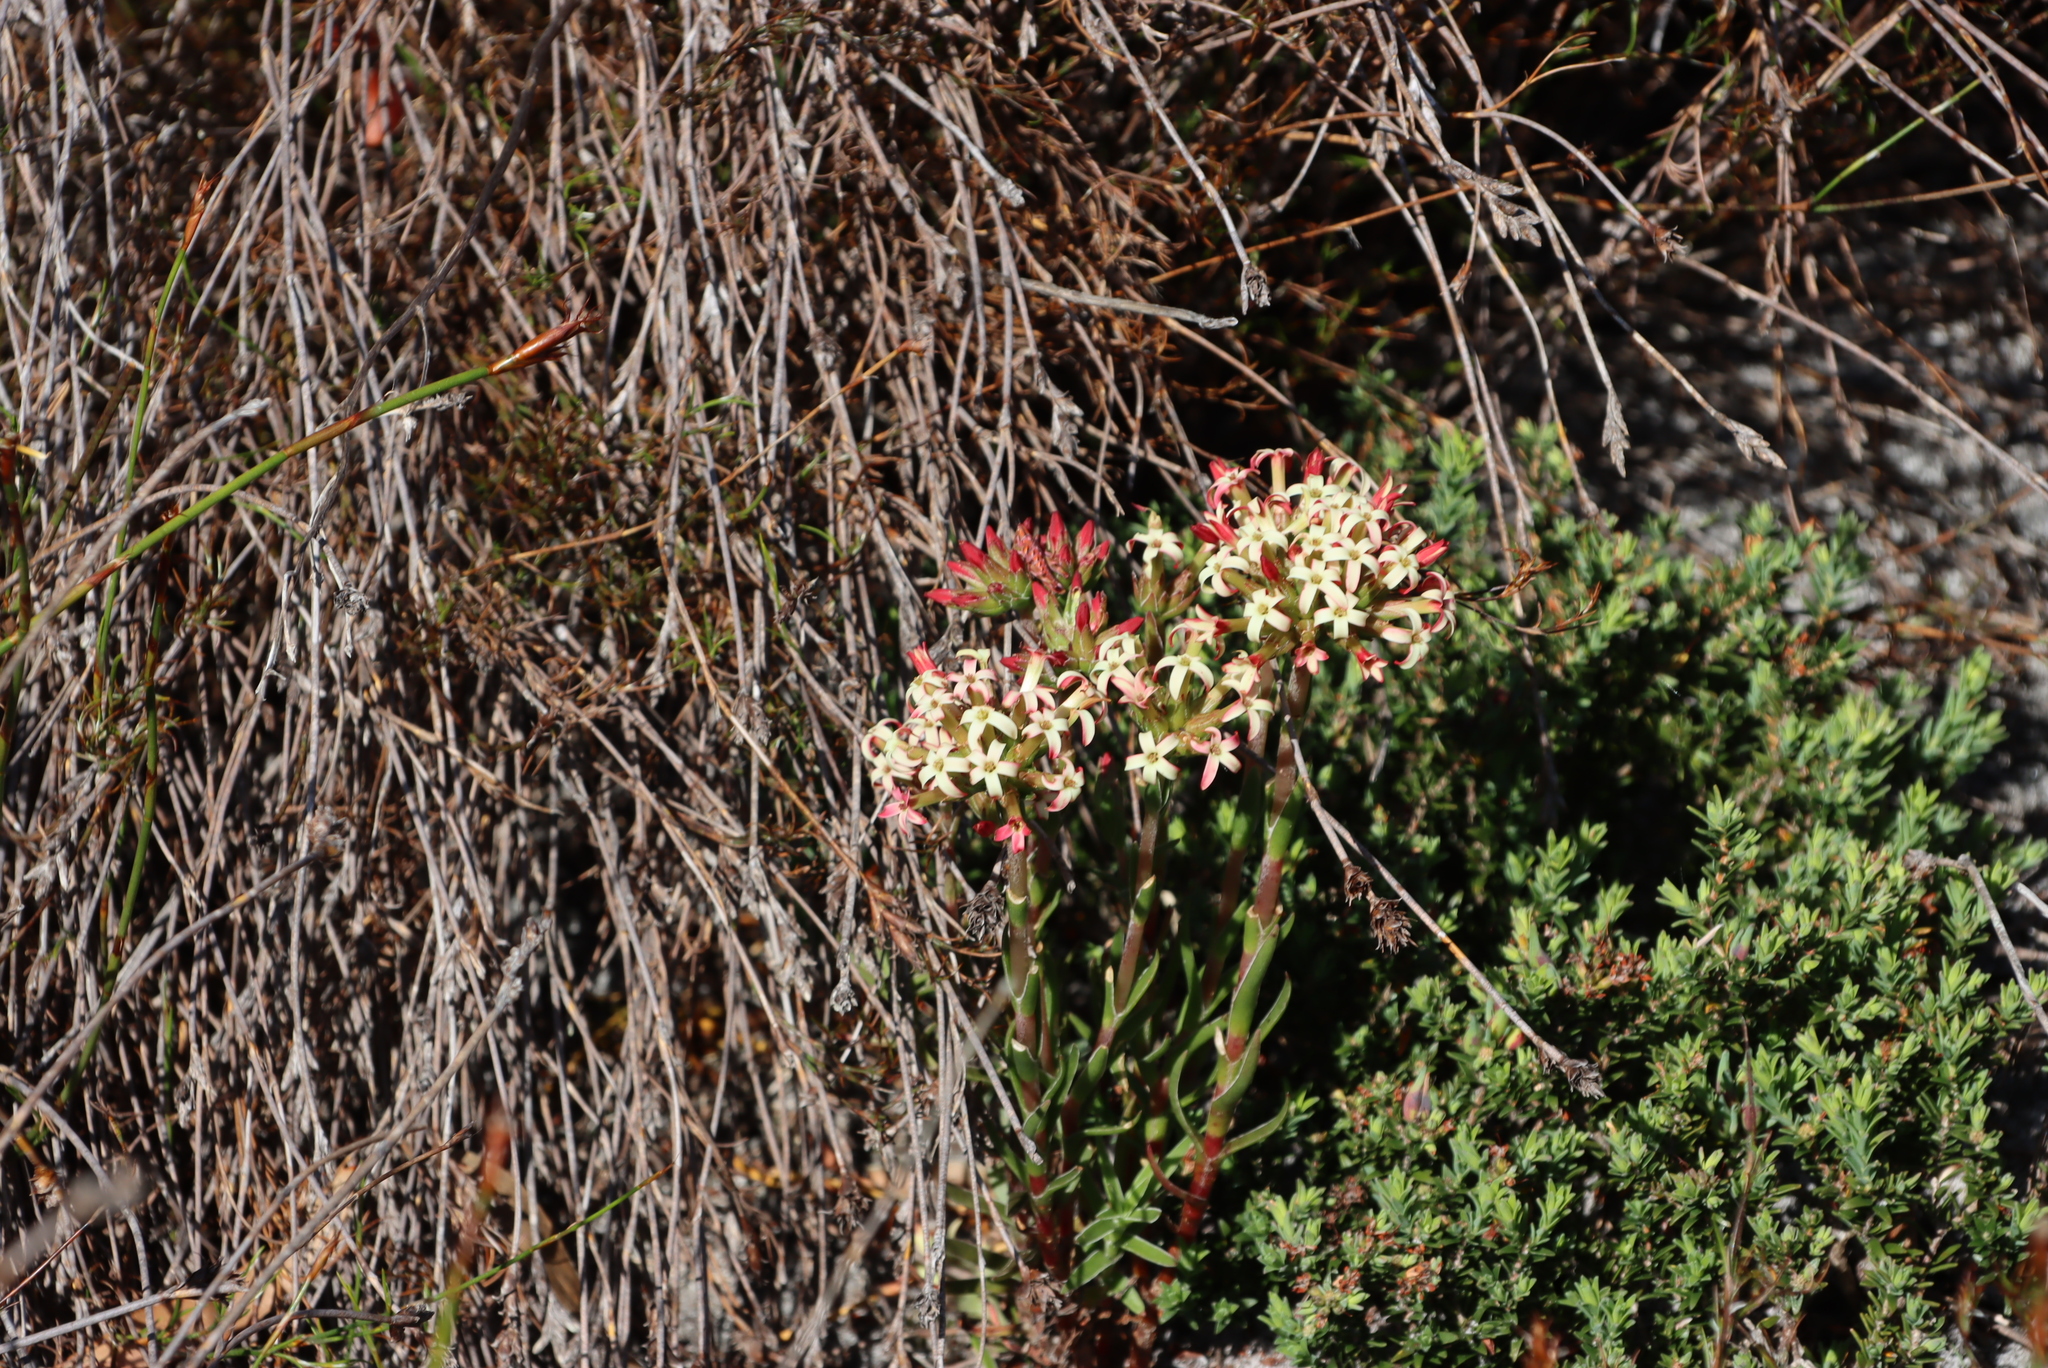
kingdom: Plantae
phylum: Tracheophyta
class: Magnoliopsida
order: Saxifragales
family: Crassulaceae
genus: Crassula
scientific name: Crassula fascicularis
